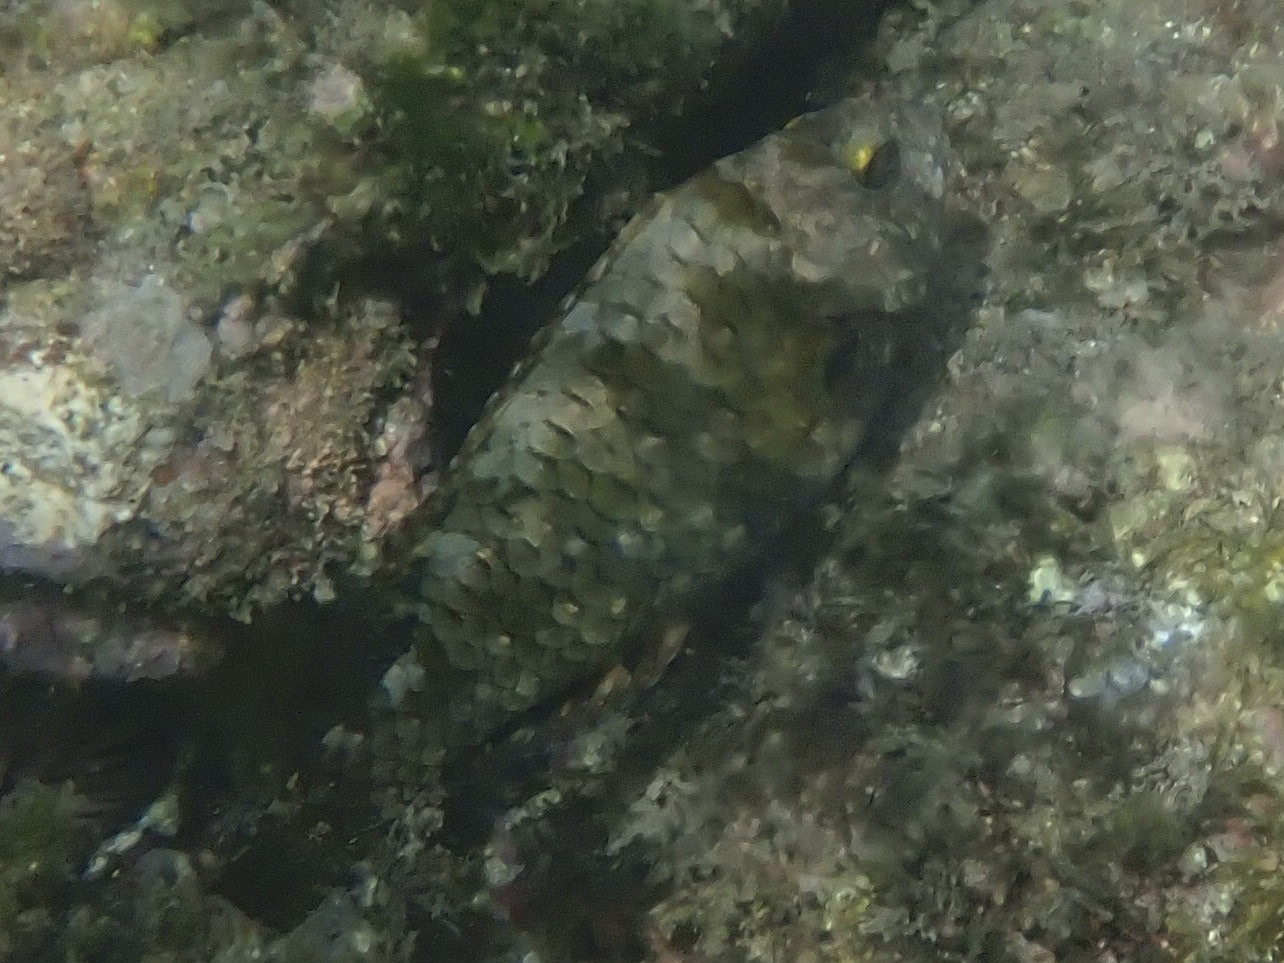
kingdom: Animalia
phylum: Chordata
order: Perciformes
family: Scaridae
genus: Calotomus
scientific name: Calotomus carolinus
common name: Bucktooth
